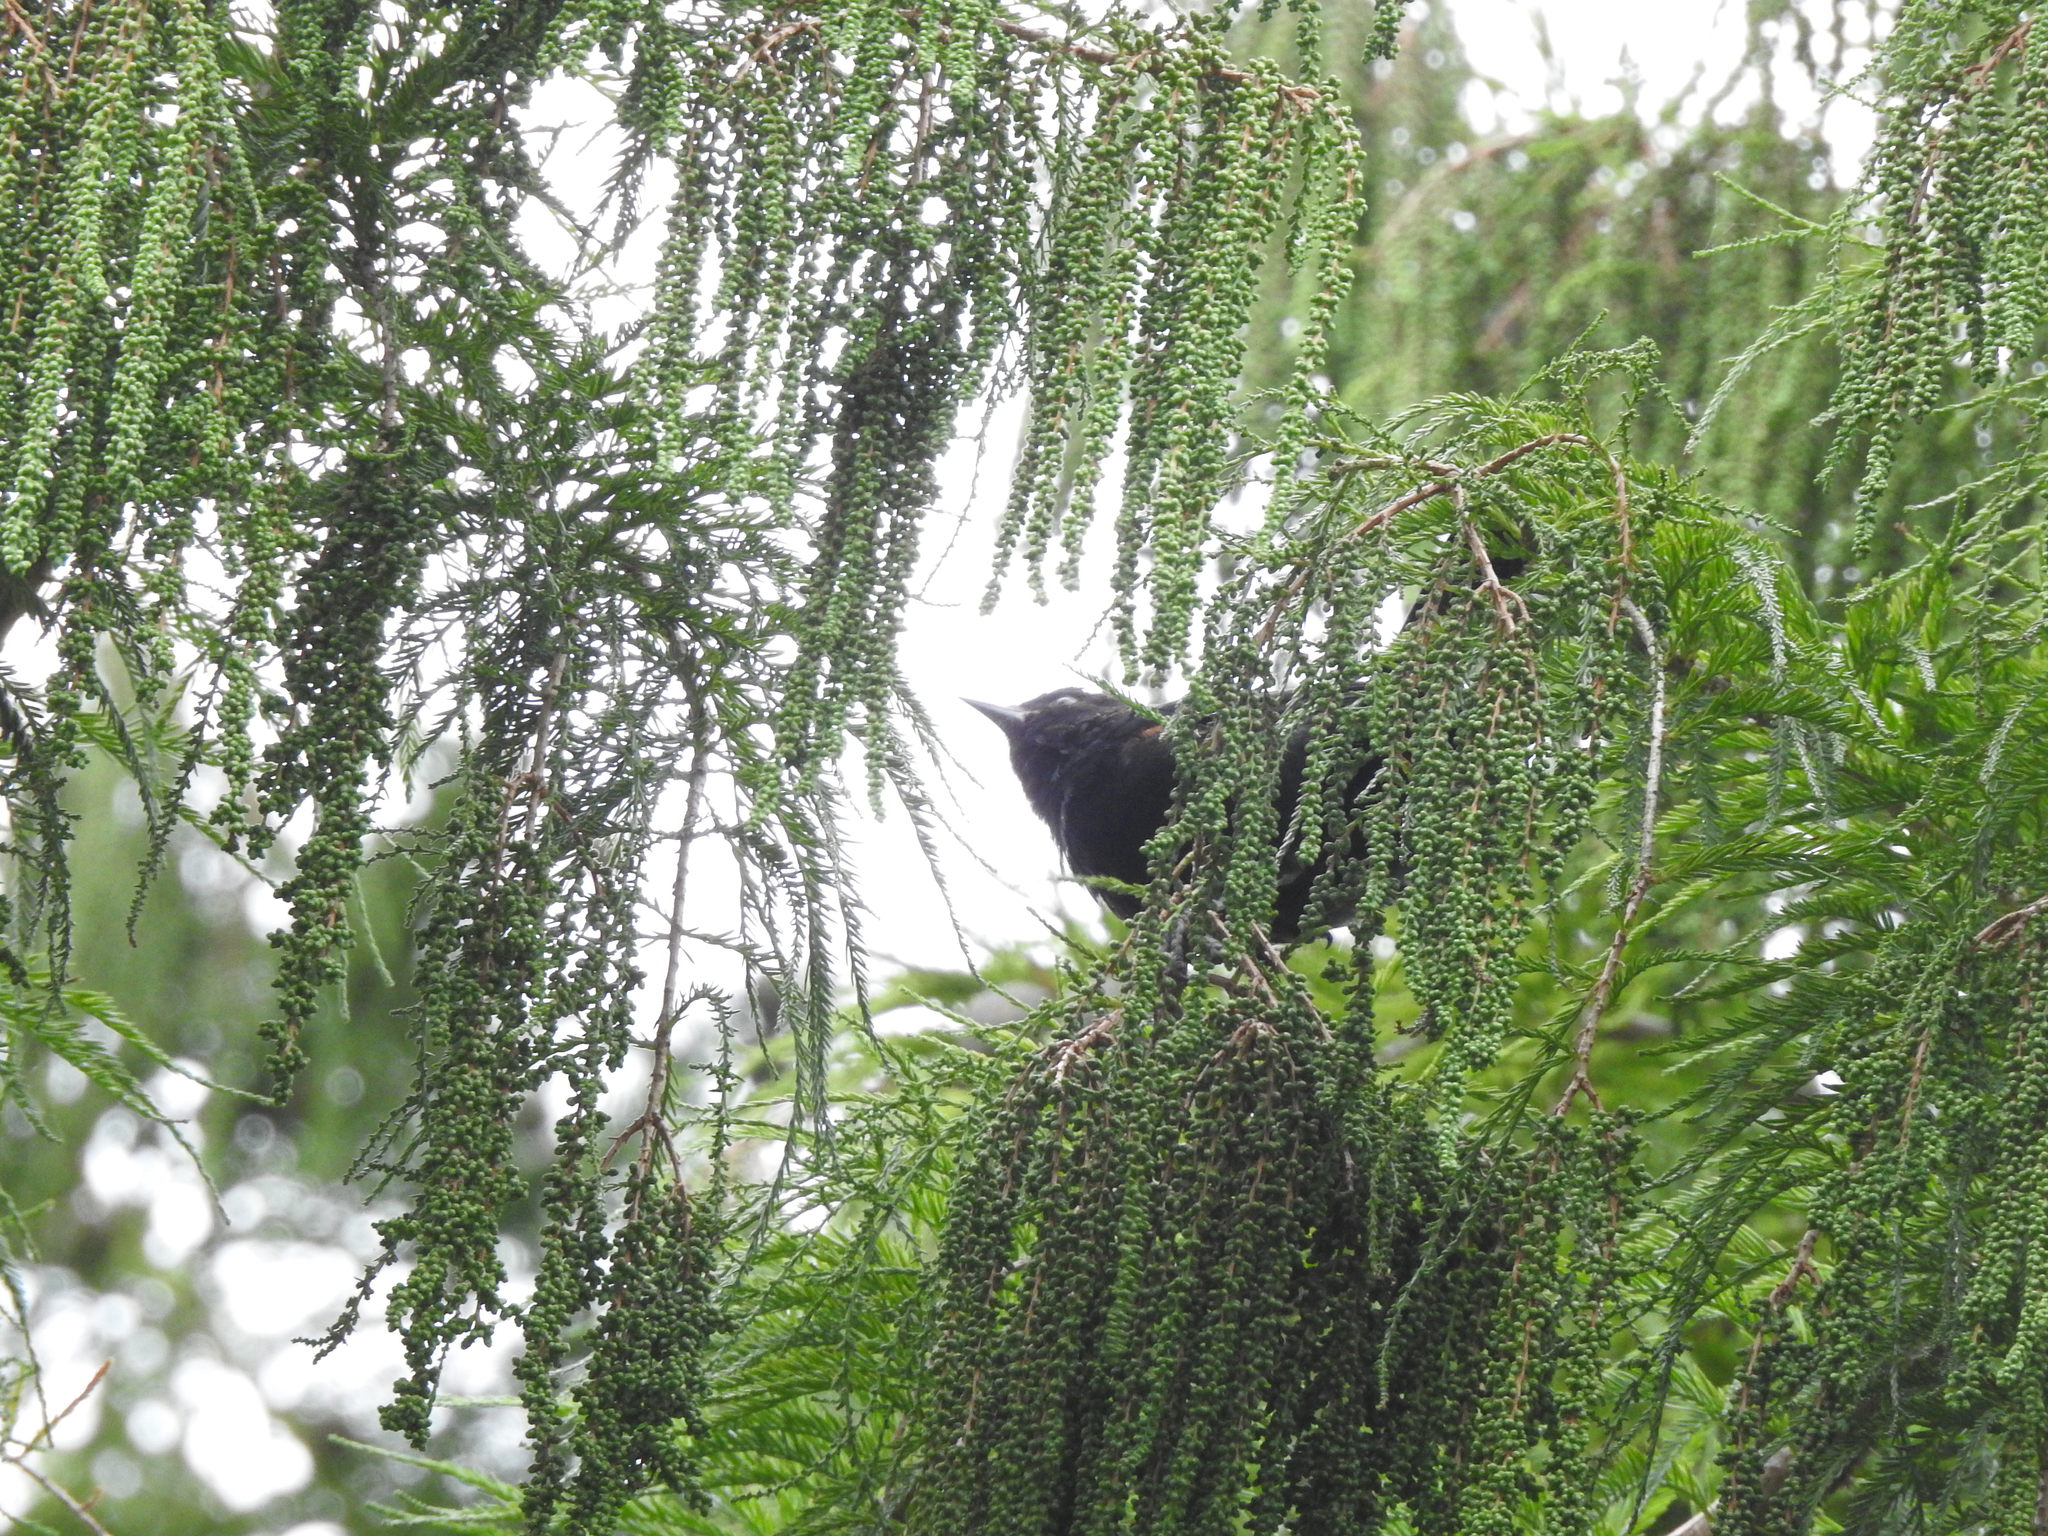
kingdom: Animalia
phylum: Chordata
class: Aves
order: Passeriformes
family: Icteridae
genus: Icterus
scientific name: Icterus cayanensis
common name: Epaulet oriole
